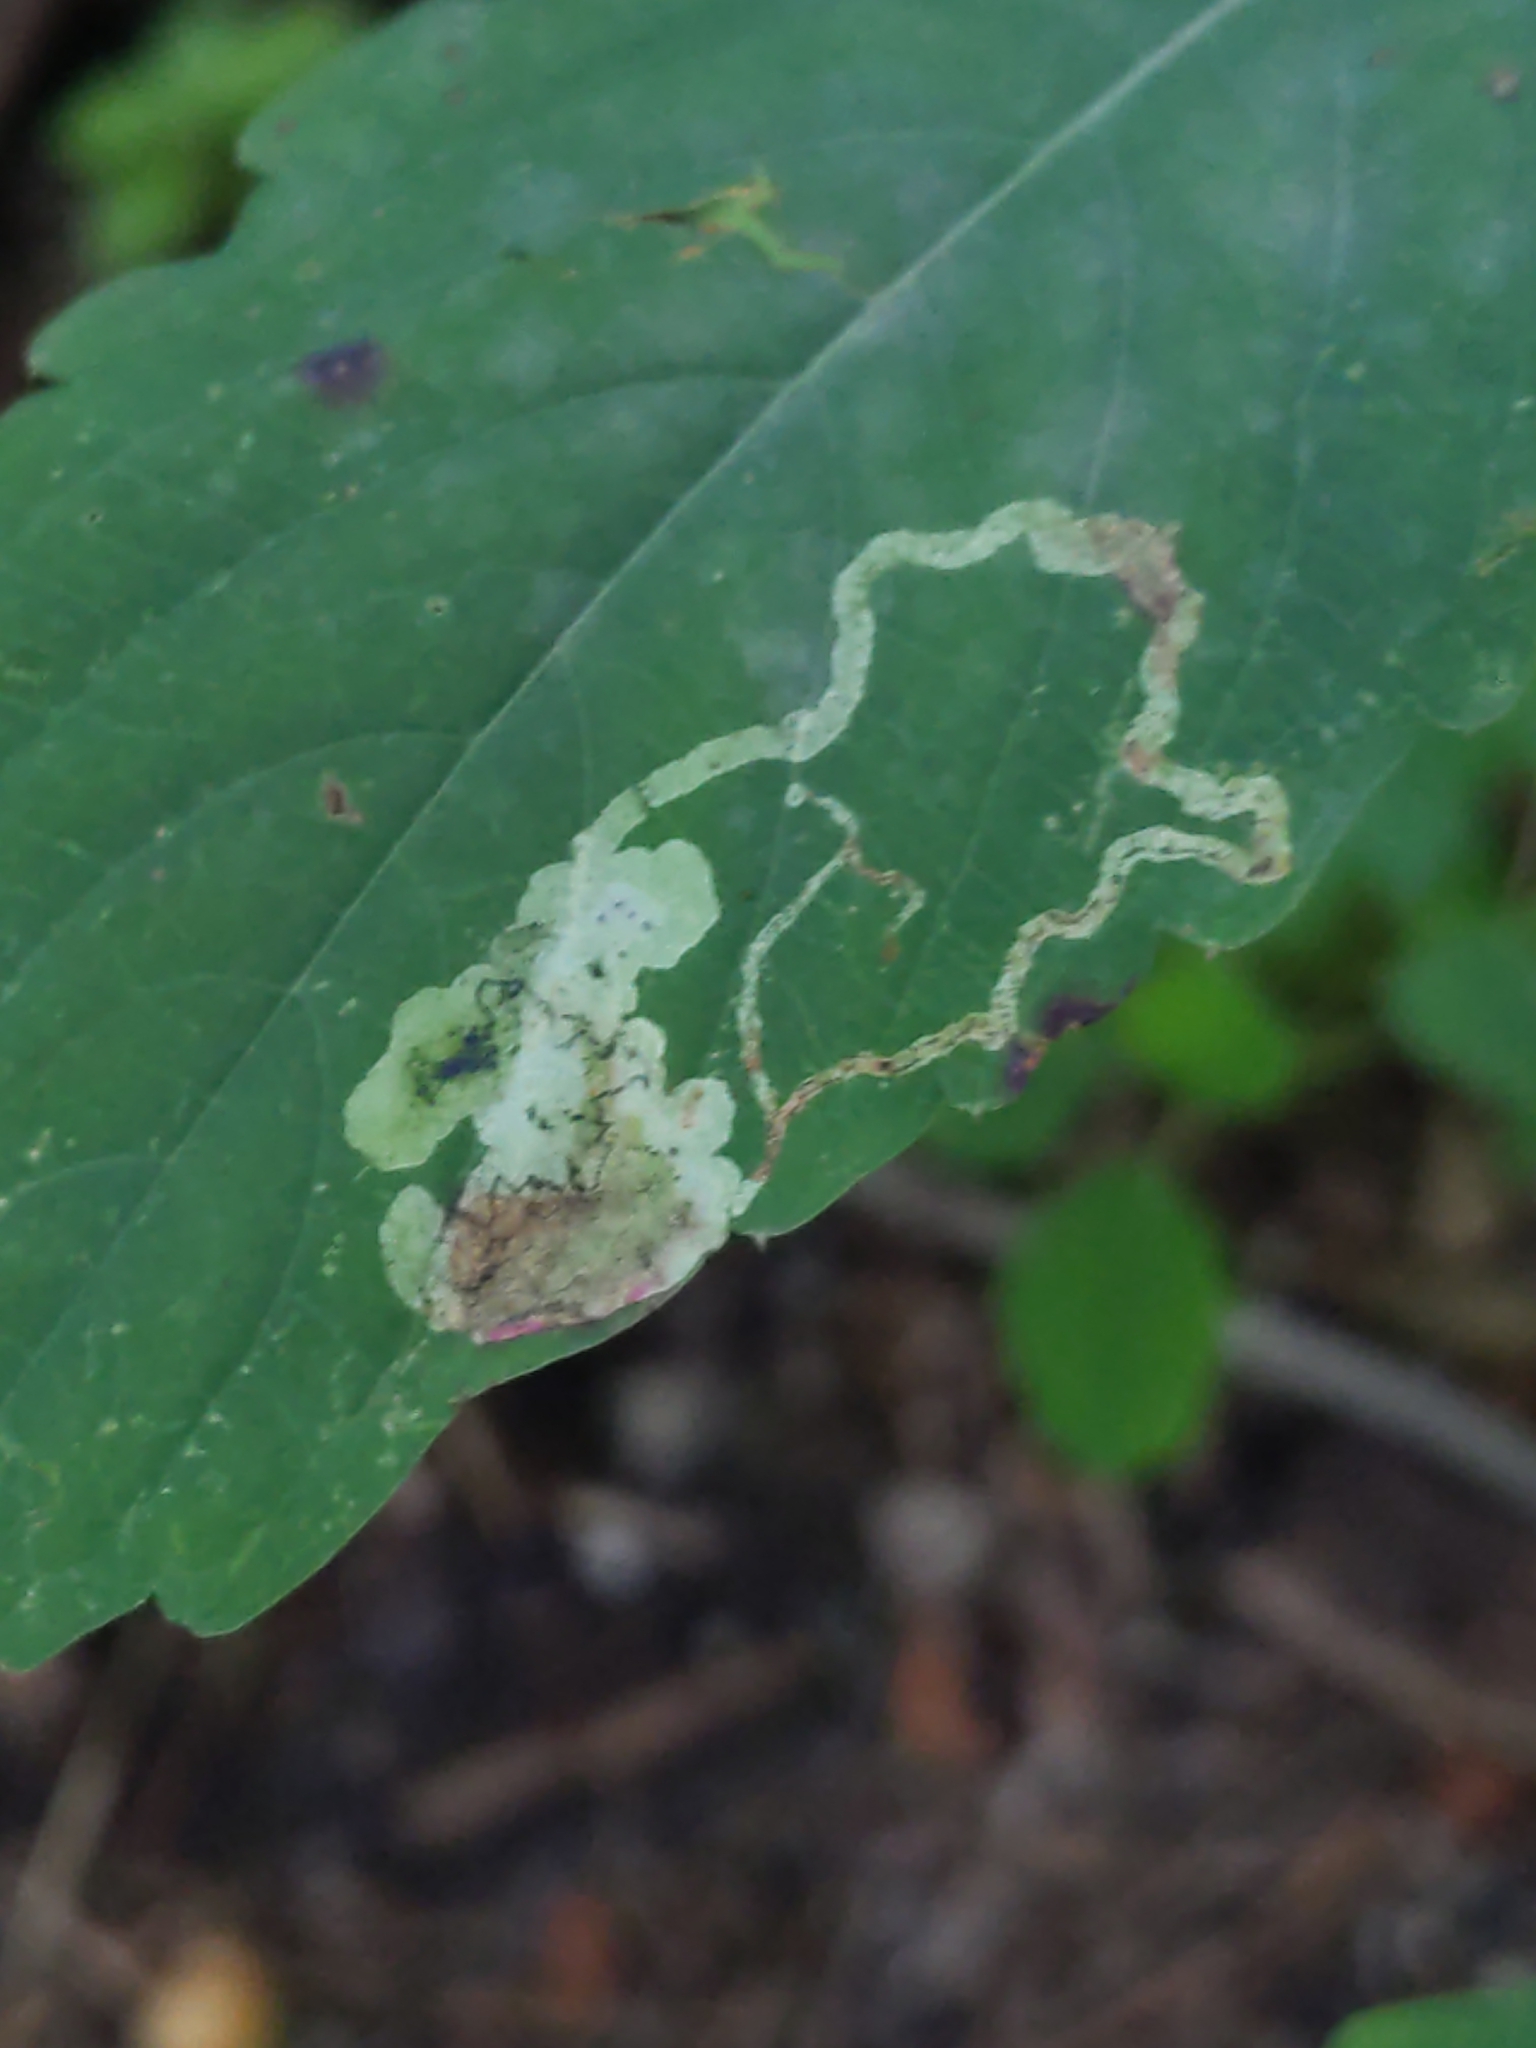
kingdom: Animalia
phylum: Arthropoda
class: Insecta
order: Diptera
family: Agromyzidae
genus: Phytoliriomyza
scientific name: Phytoliriomyza melampyga
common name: Jewelweed leaf-miner fly
